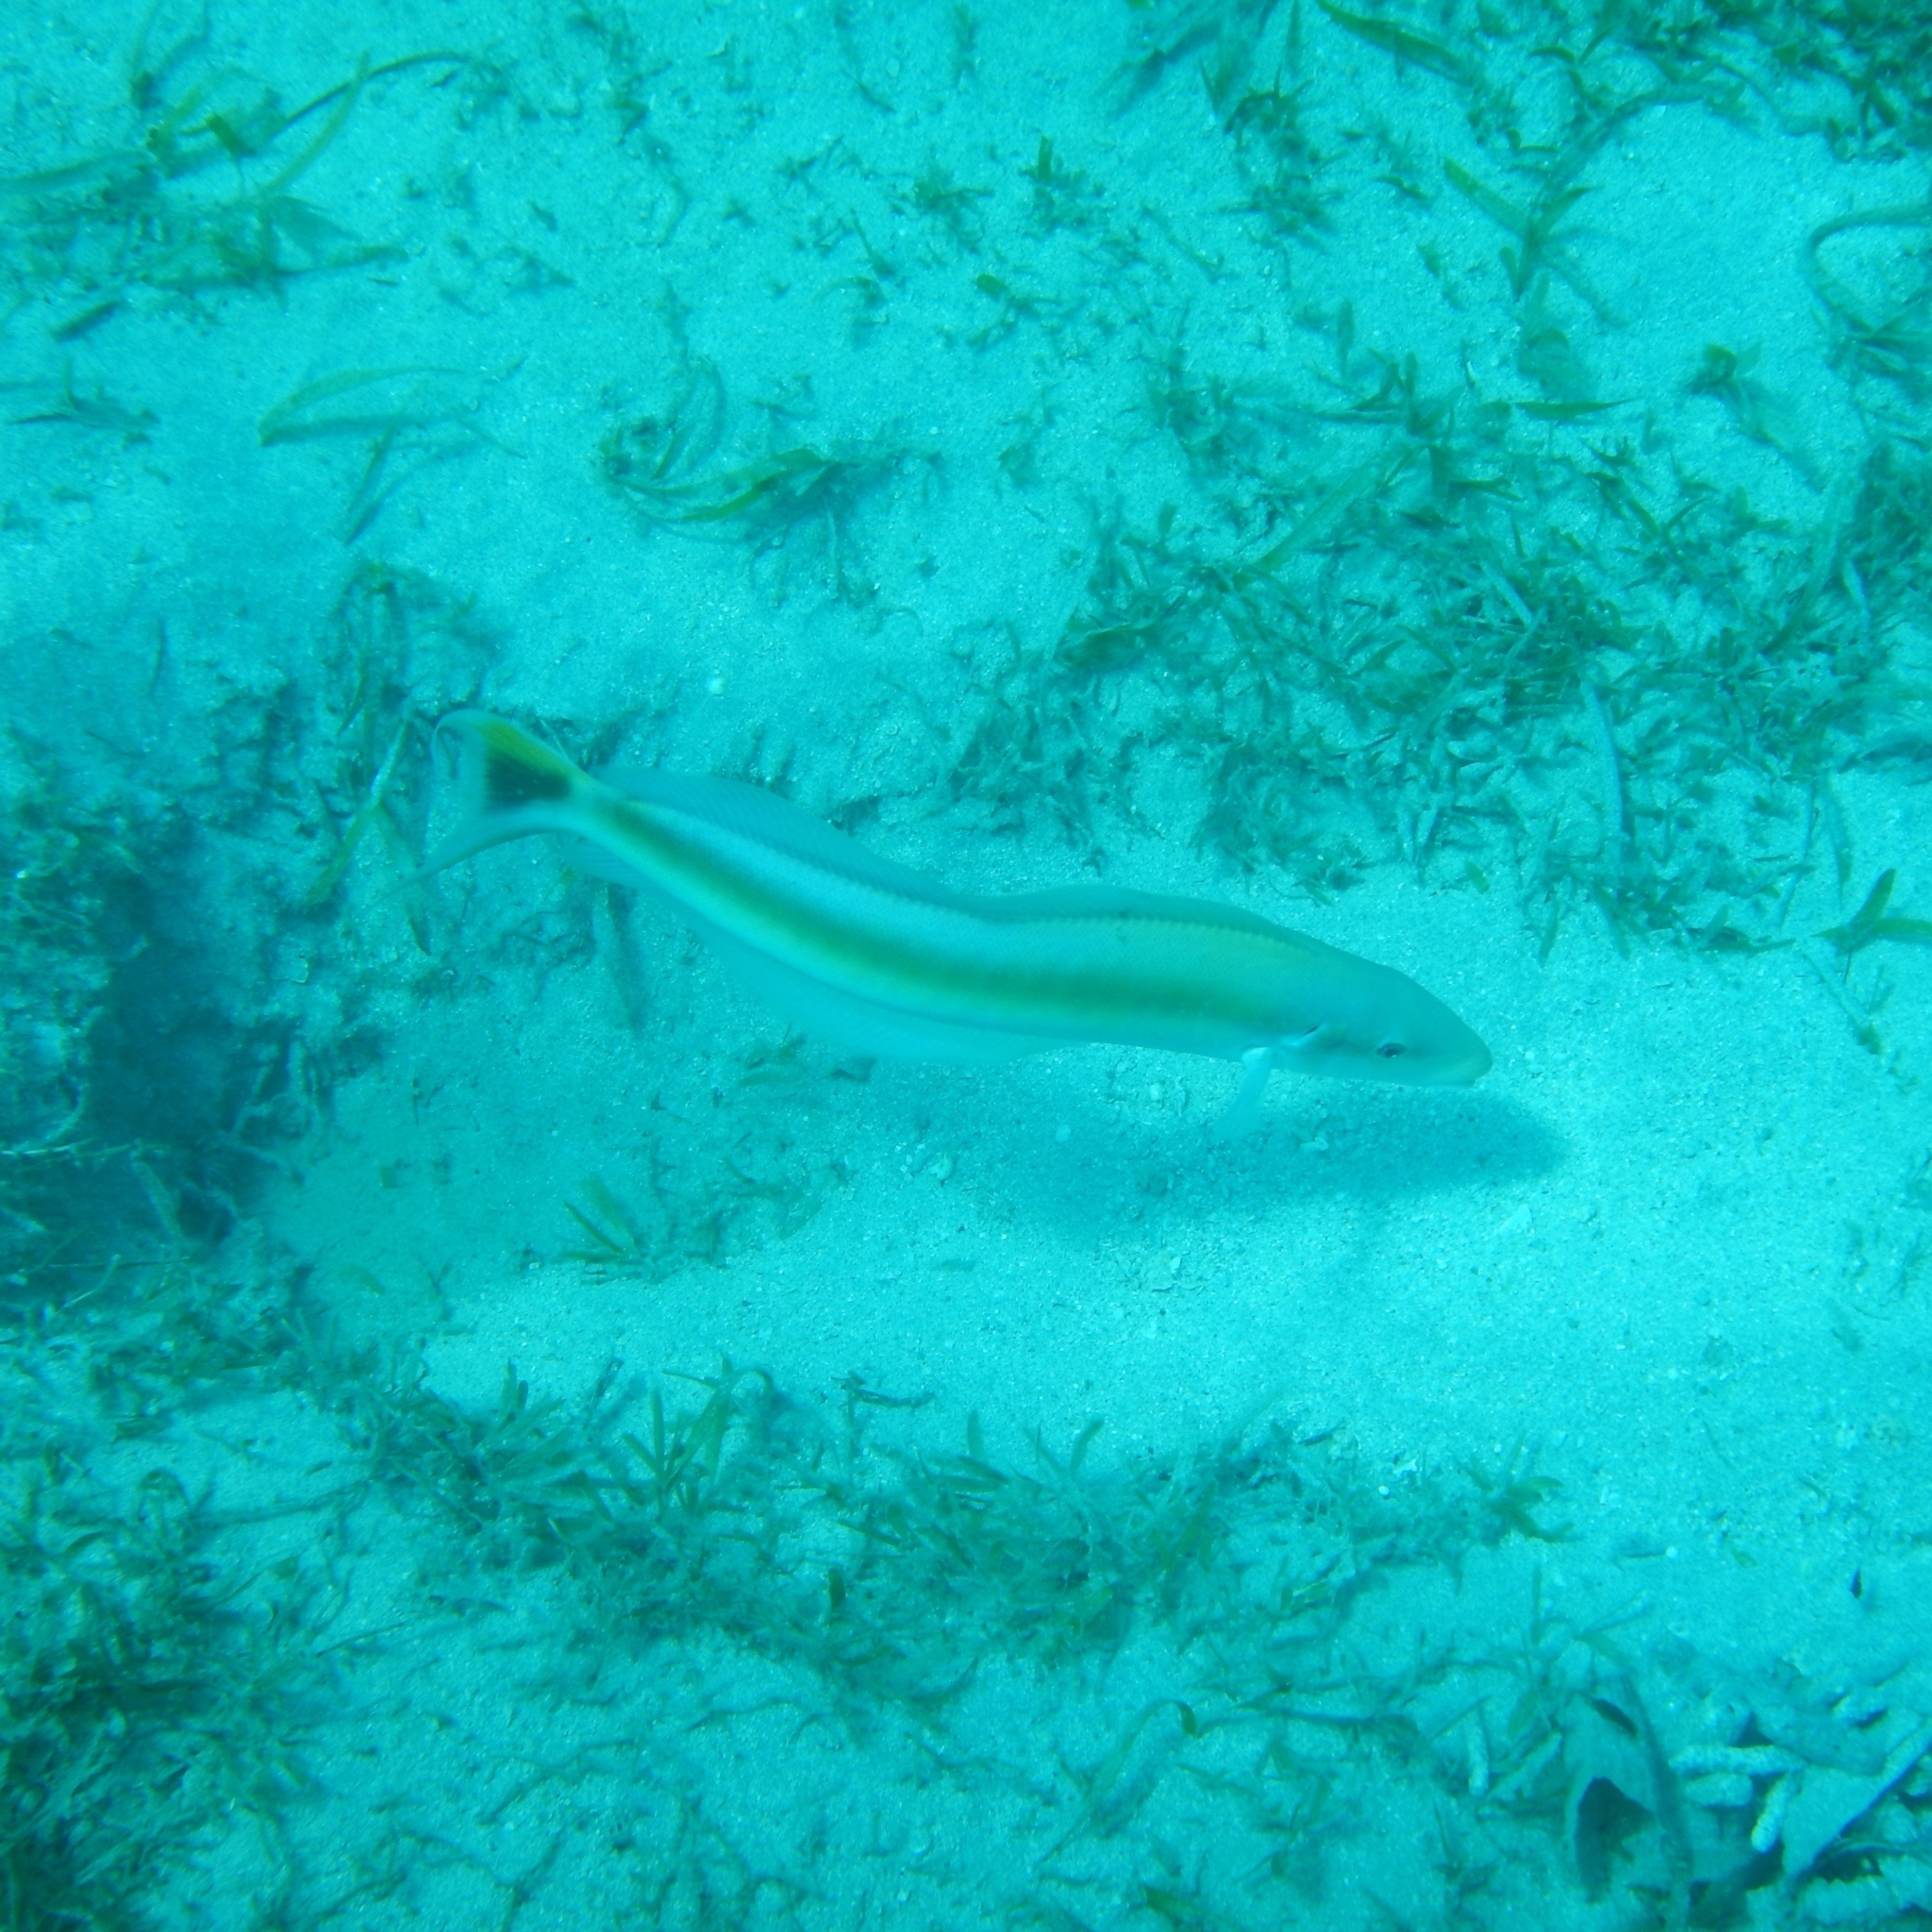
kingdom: Animalia
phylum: Chordata
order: Perciformes
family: Malacanthidae
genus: Malacanthus
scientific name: Malacanthus plumieri
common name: Sand tilefish
